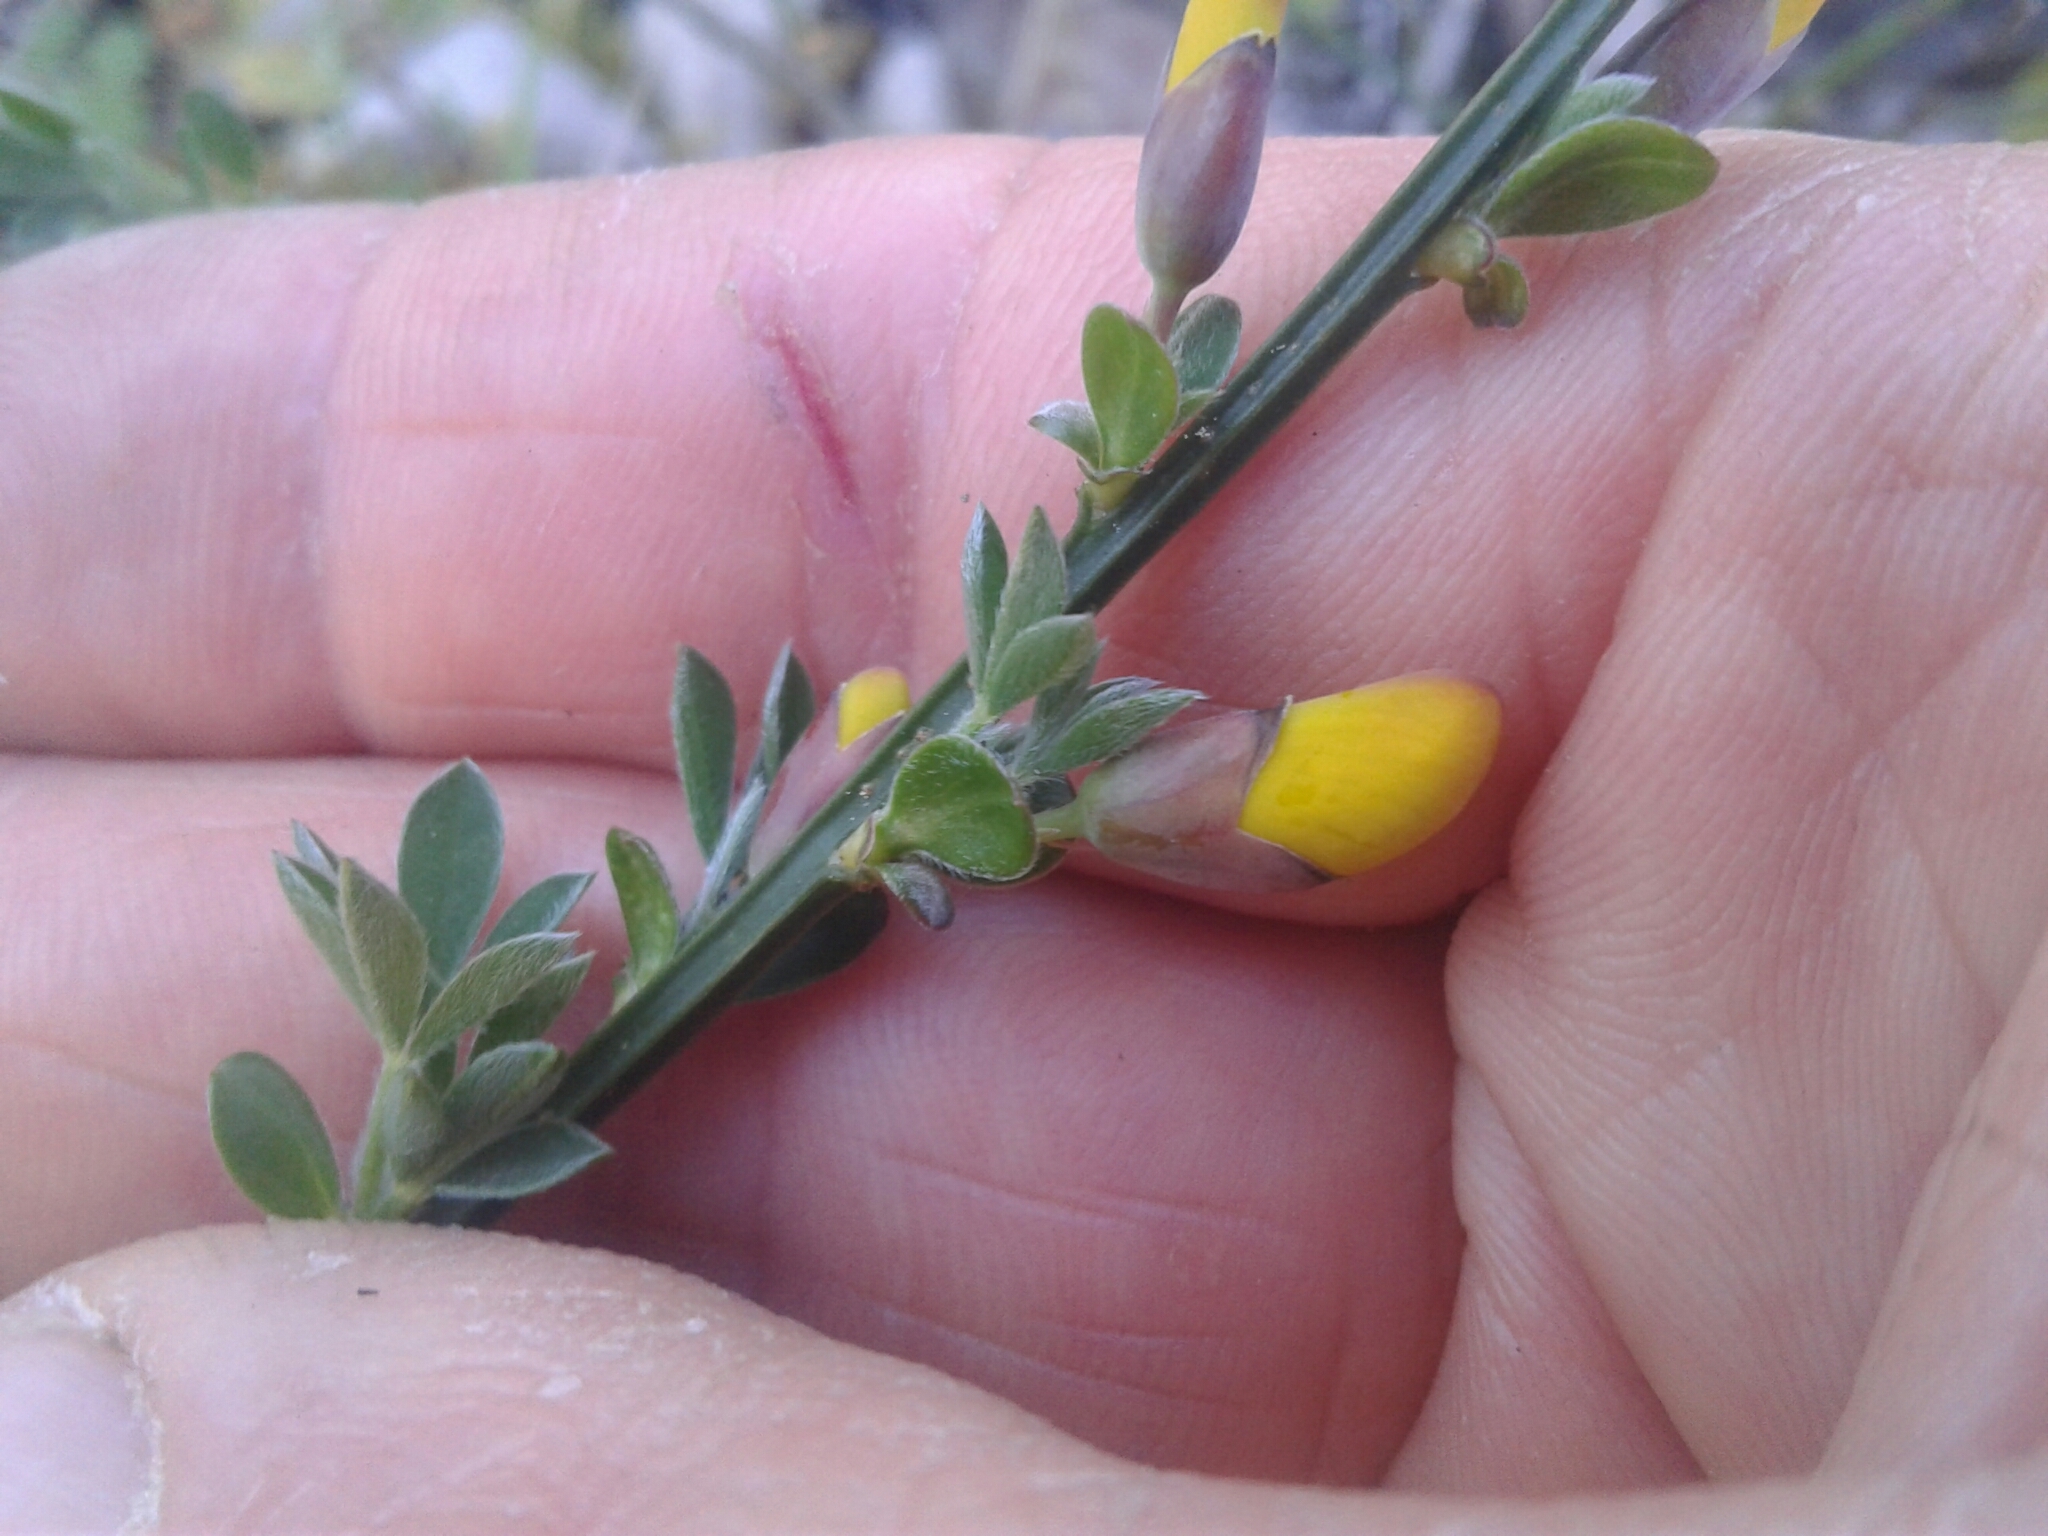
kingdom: Plantae
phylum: Tracheophyta
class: Magnoliopsida
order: Fabales
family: Fabaceae
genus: Cytisus
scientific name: Cytisus scoparius
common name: Scotch broom
